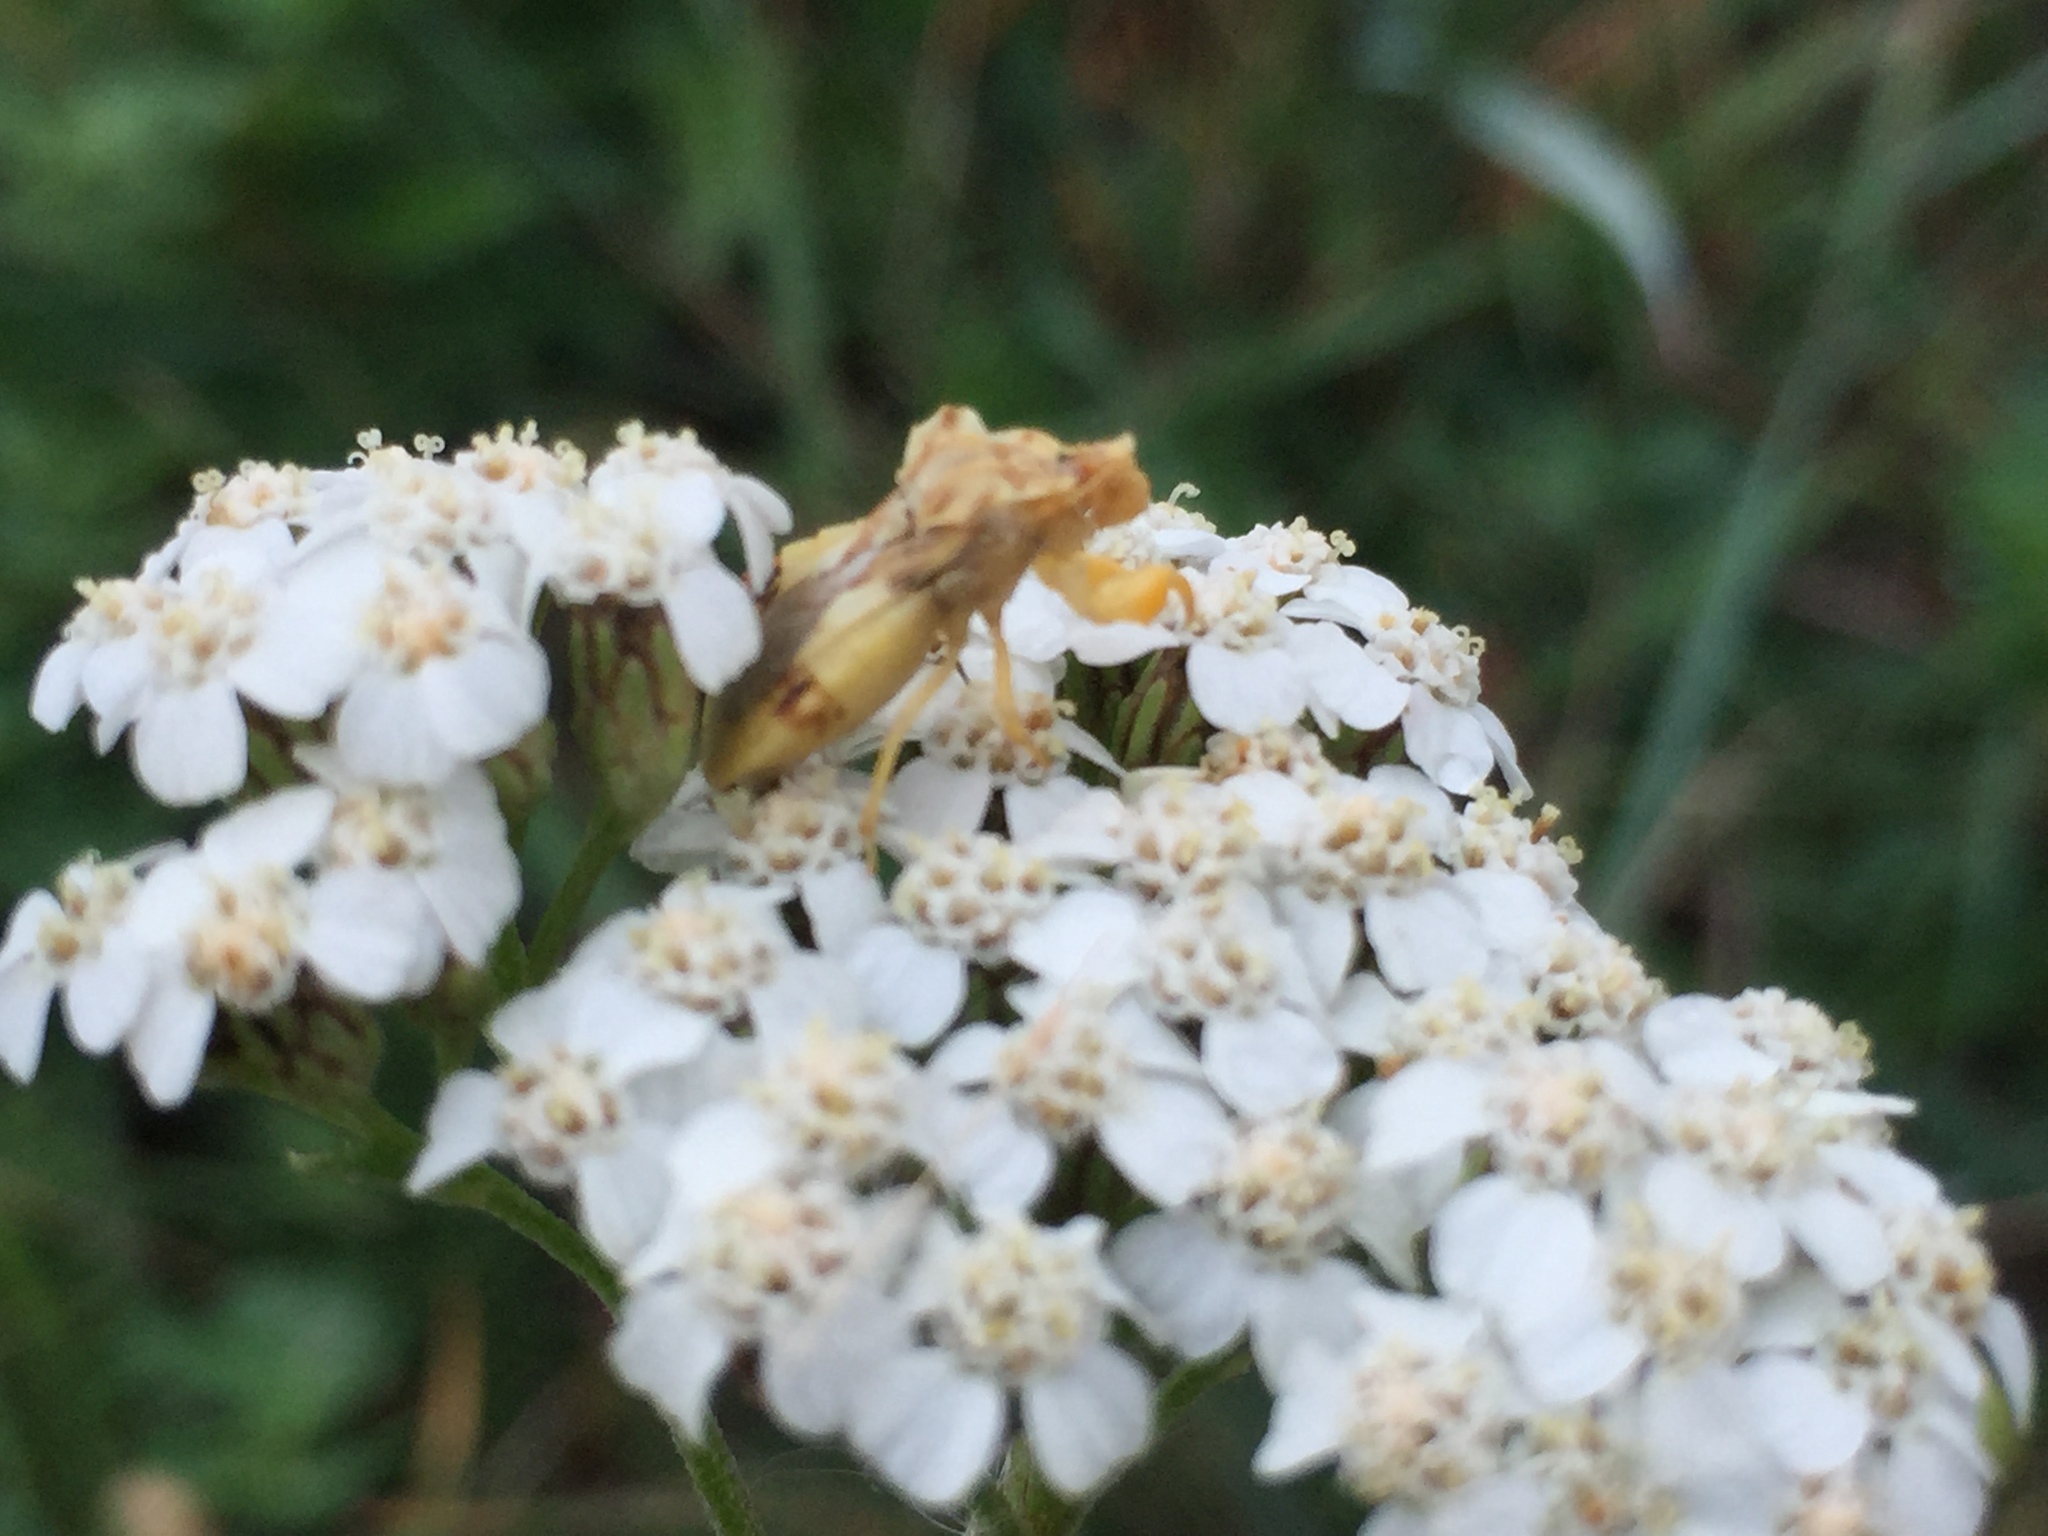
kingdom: Animalia
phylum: Arthropoda
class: Insecta
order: Hemiptera
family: Reduviidae
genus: Phymata
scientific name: Phymata americana
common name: Jagged ambush bug
